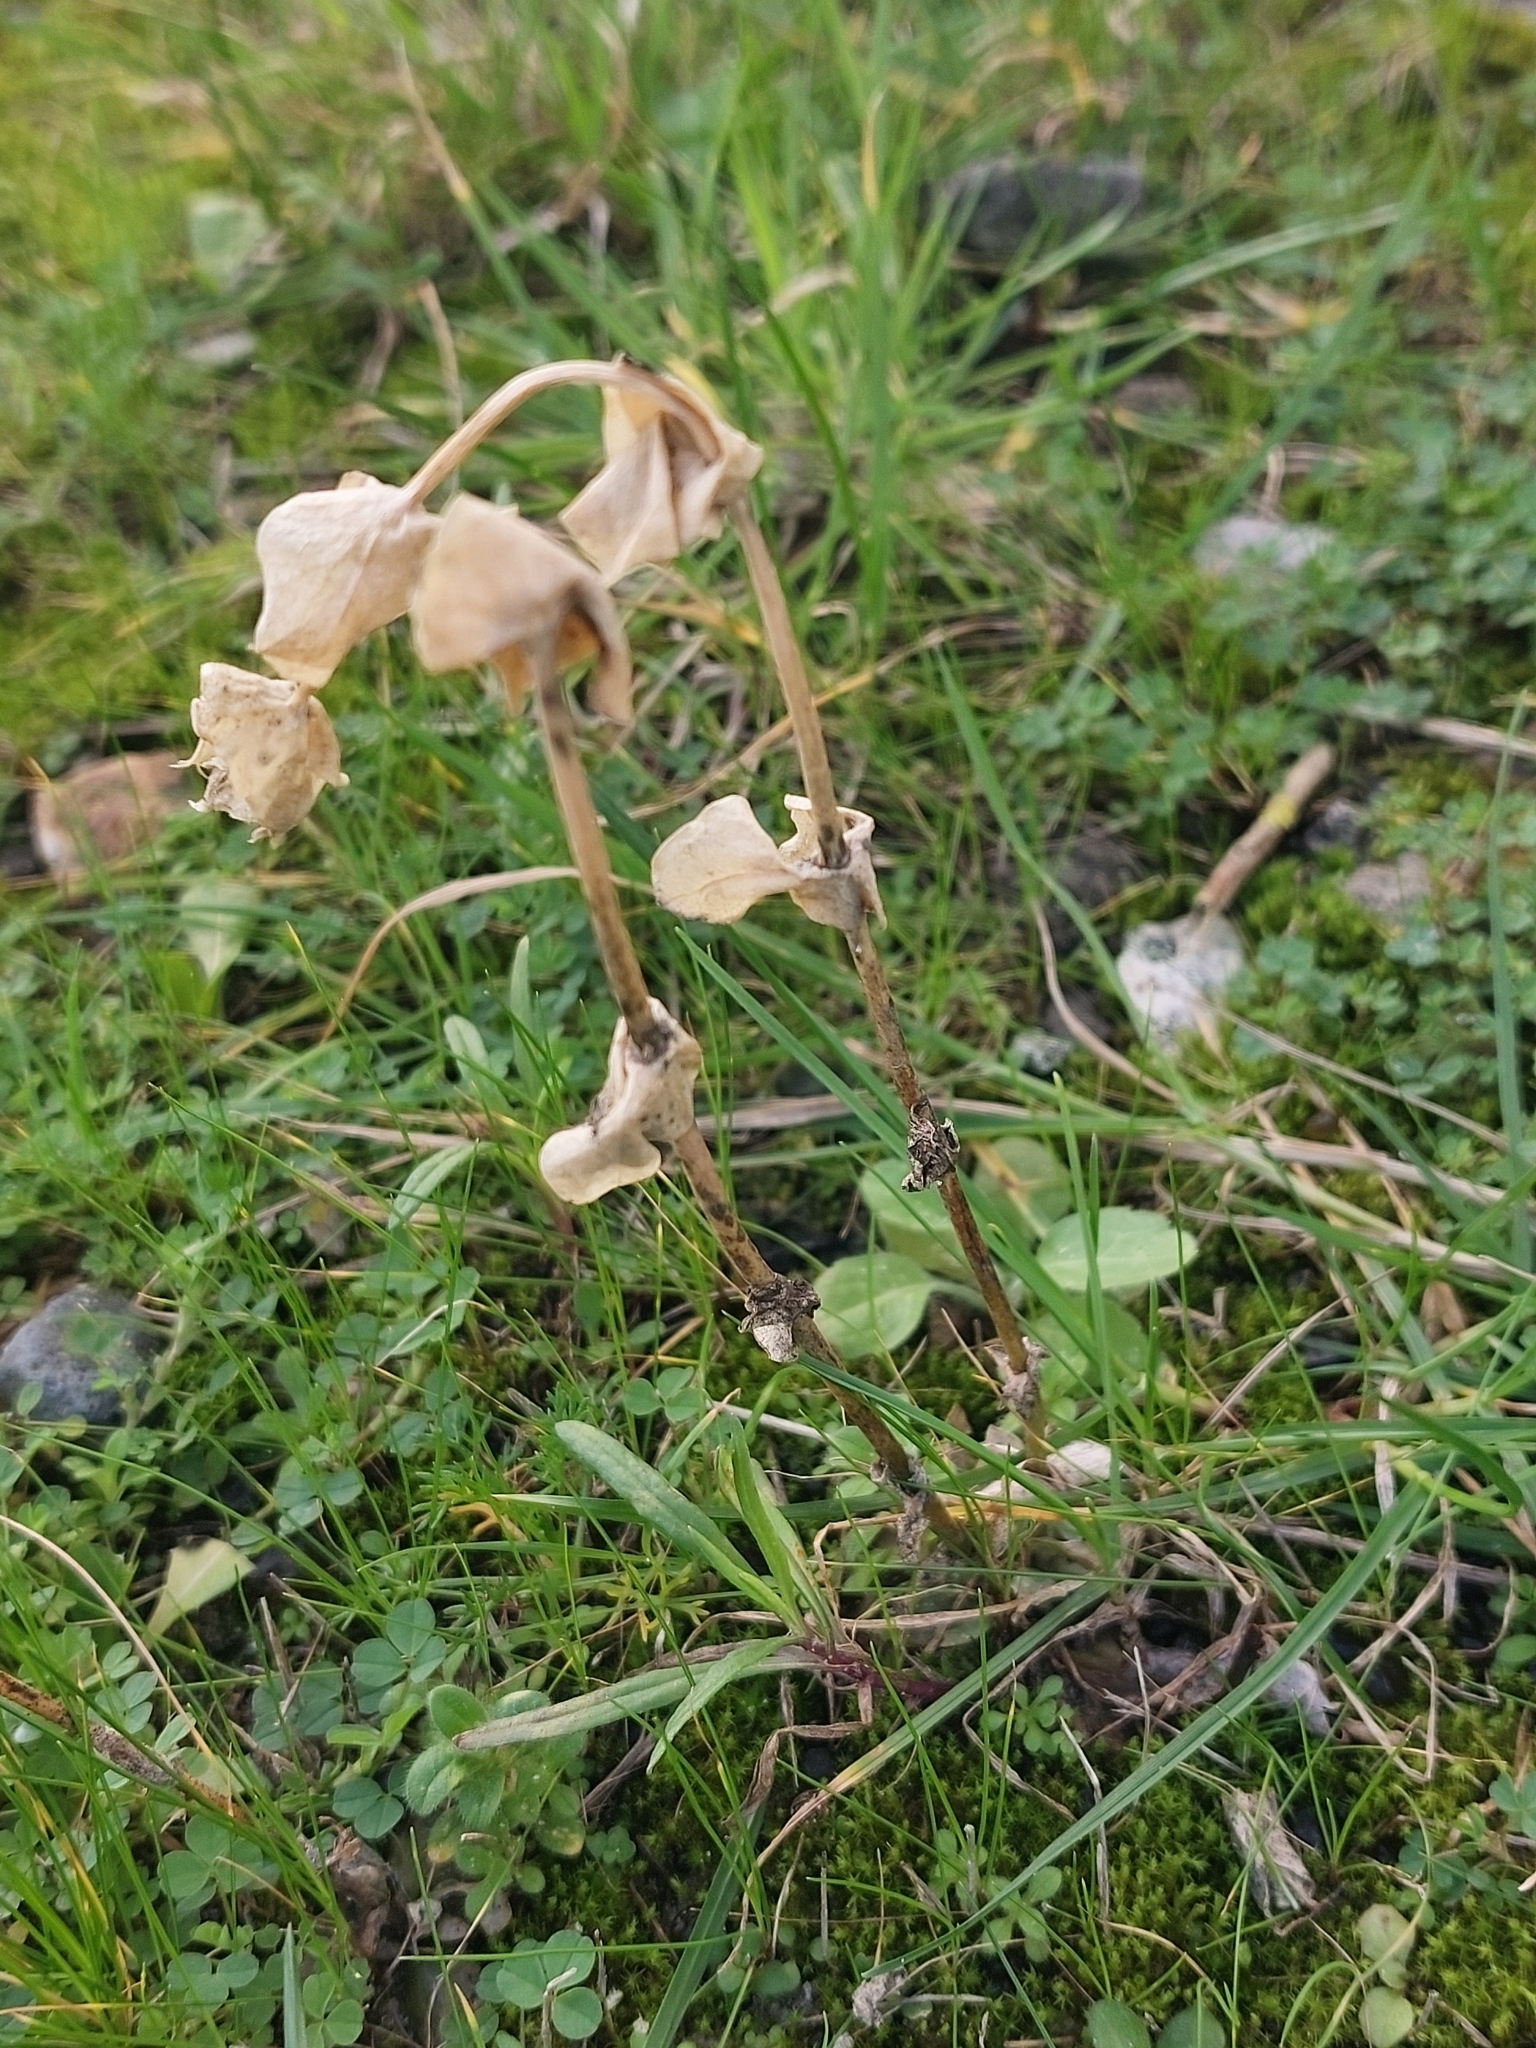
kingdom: Plantae
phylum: Tracheophyta
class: Magnoliopsida
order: Gentianales
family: Gentianaceae
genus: Blackstonia
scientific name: Blackstonia perfoliata
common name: Yellow-wort
